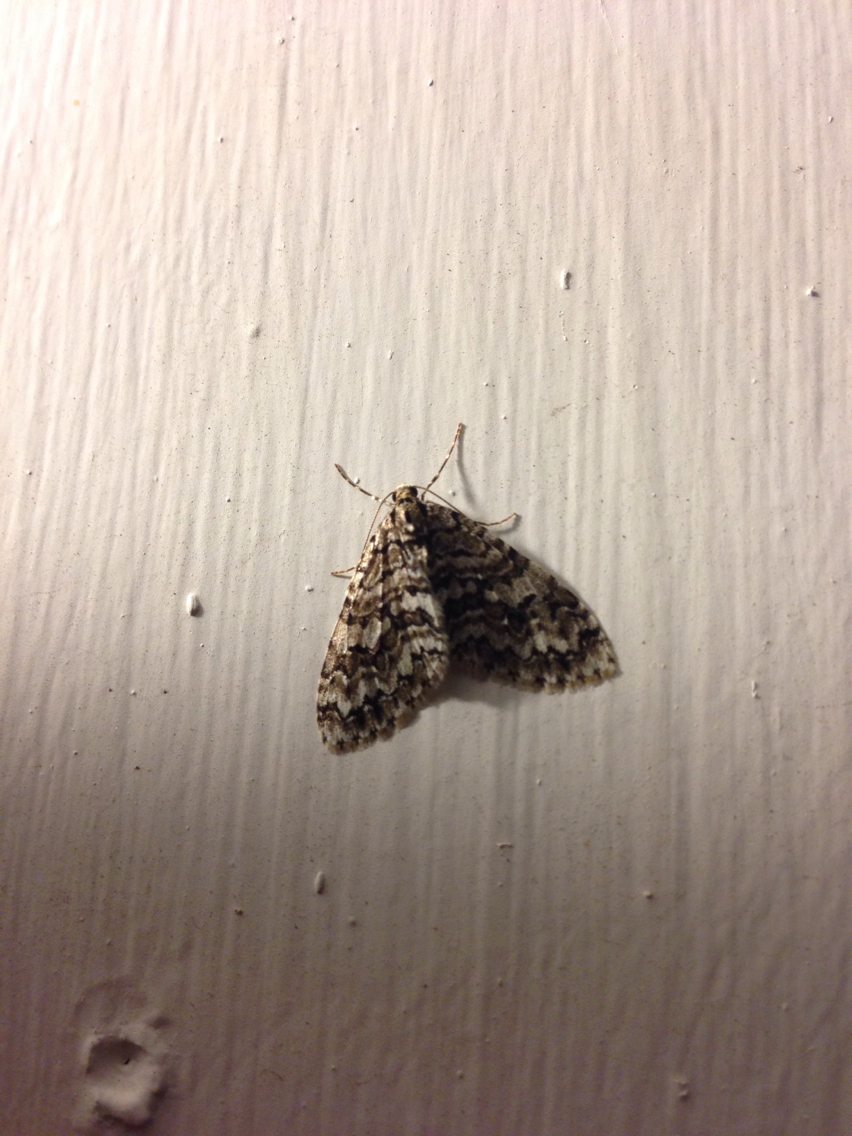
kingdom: Animalia
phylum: Arthropoda
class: Insecta
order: Lepidoptera
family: Geometridae
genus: Cladara
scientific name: Cladara atroliturata
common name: Scribbler
